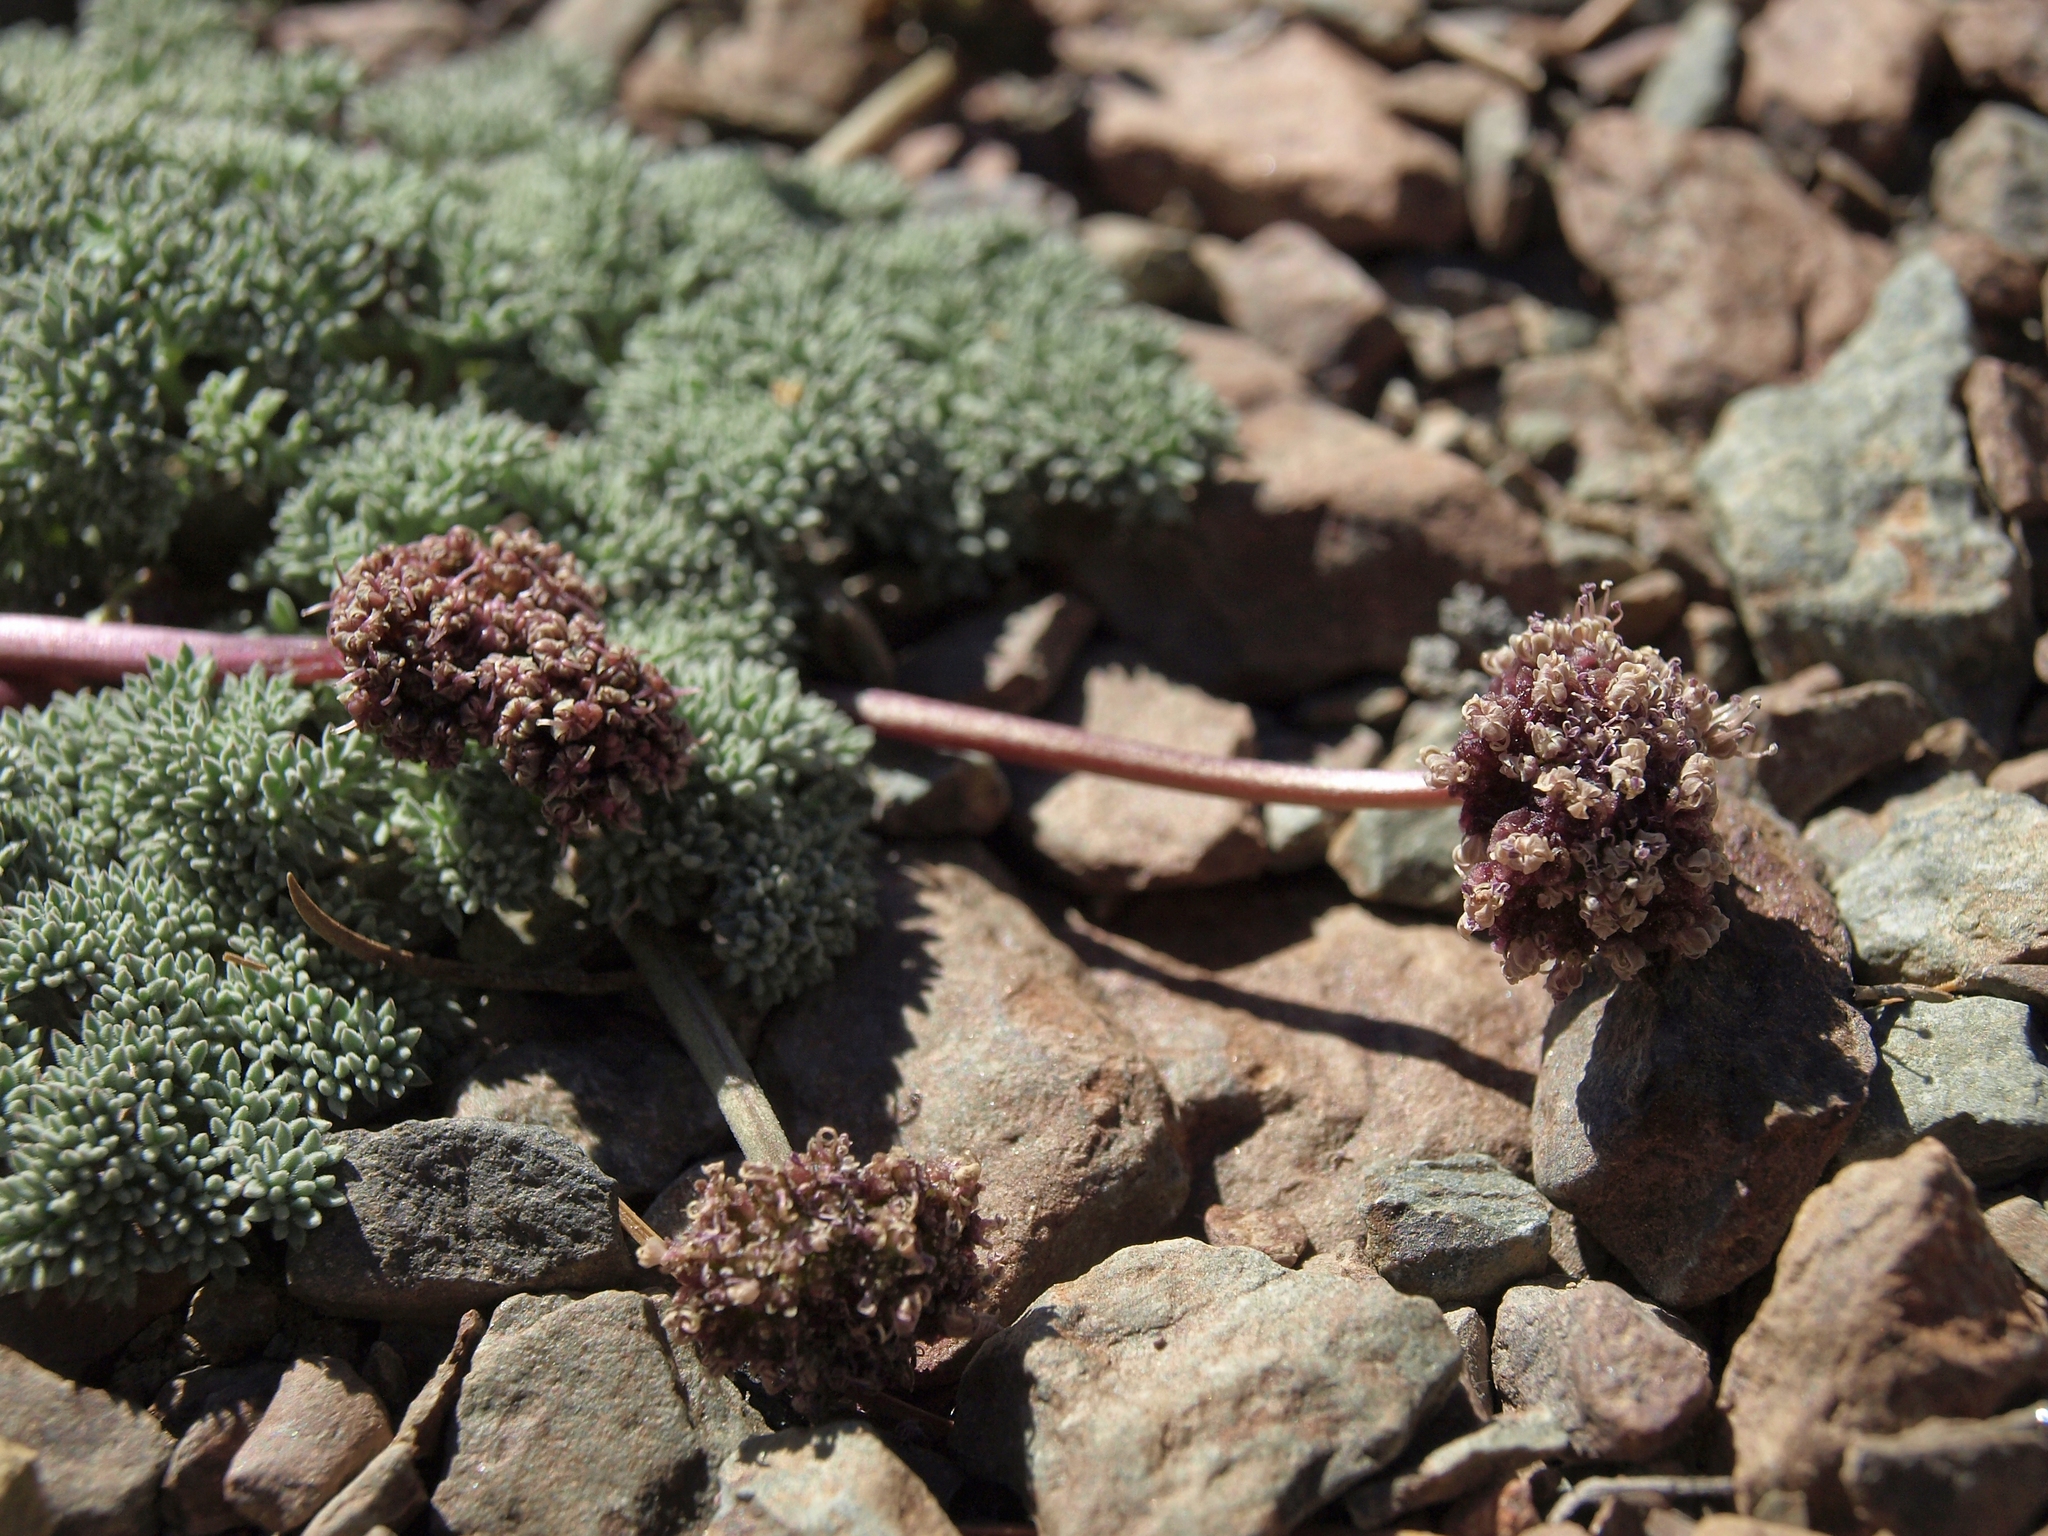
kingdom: Plantae
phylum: Tracheophyta
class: Magnoliopsida
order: Apiales
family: Apiaceae
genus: Aulospermum
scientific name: Aulospermum cinerarium
